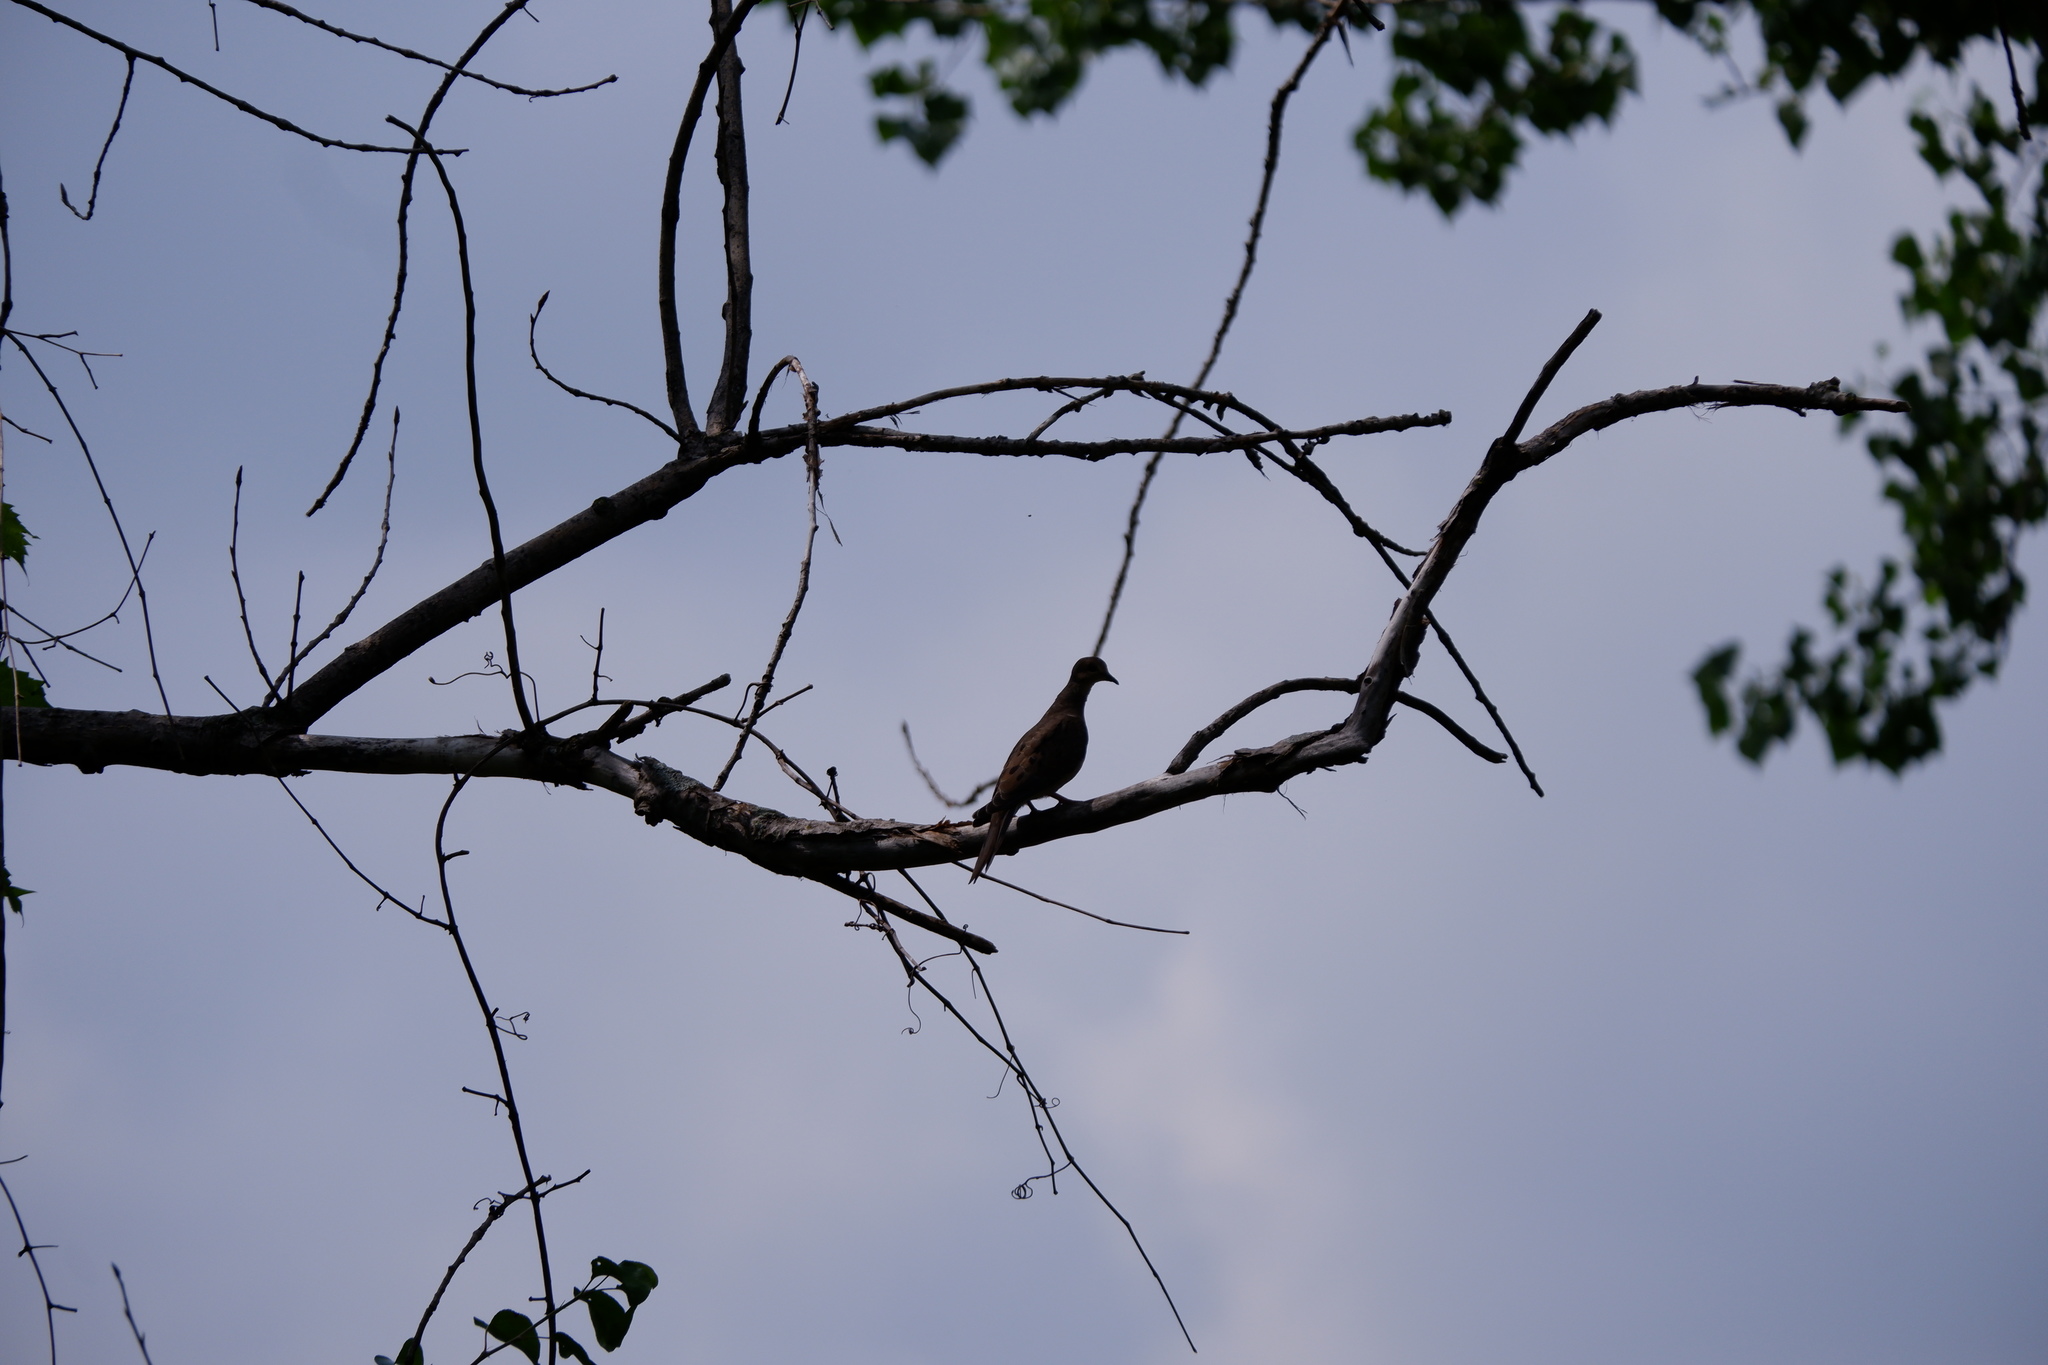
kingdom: Animalia
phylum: Chordata
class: Aves
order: Columbiformes
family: Columbidae
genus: Zenaida
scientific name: Zenaida macroura
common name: Mourning dove
